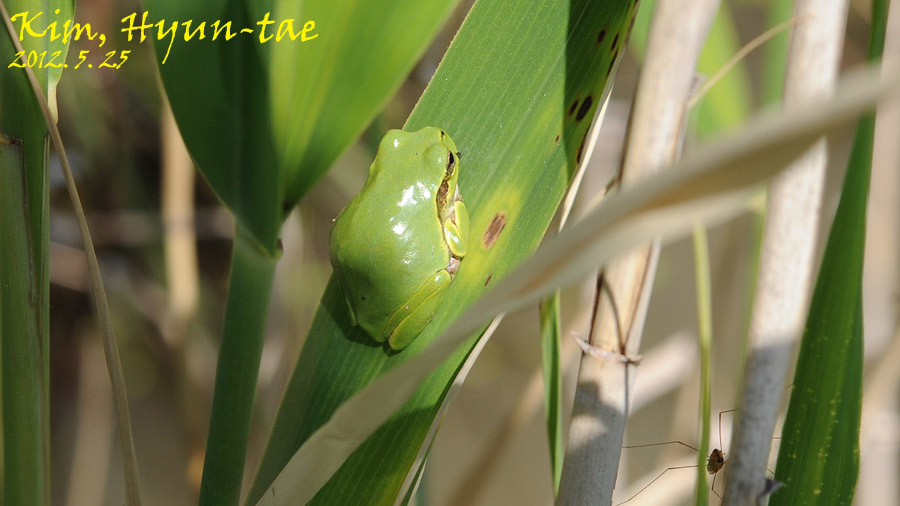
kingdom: Animalia
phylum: Chordata
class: Amphibia
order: Anura
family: Hylidae
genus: Dryophytes
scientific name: Dryophytes japonicus
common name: Japanese treefrog
